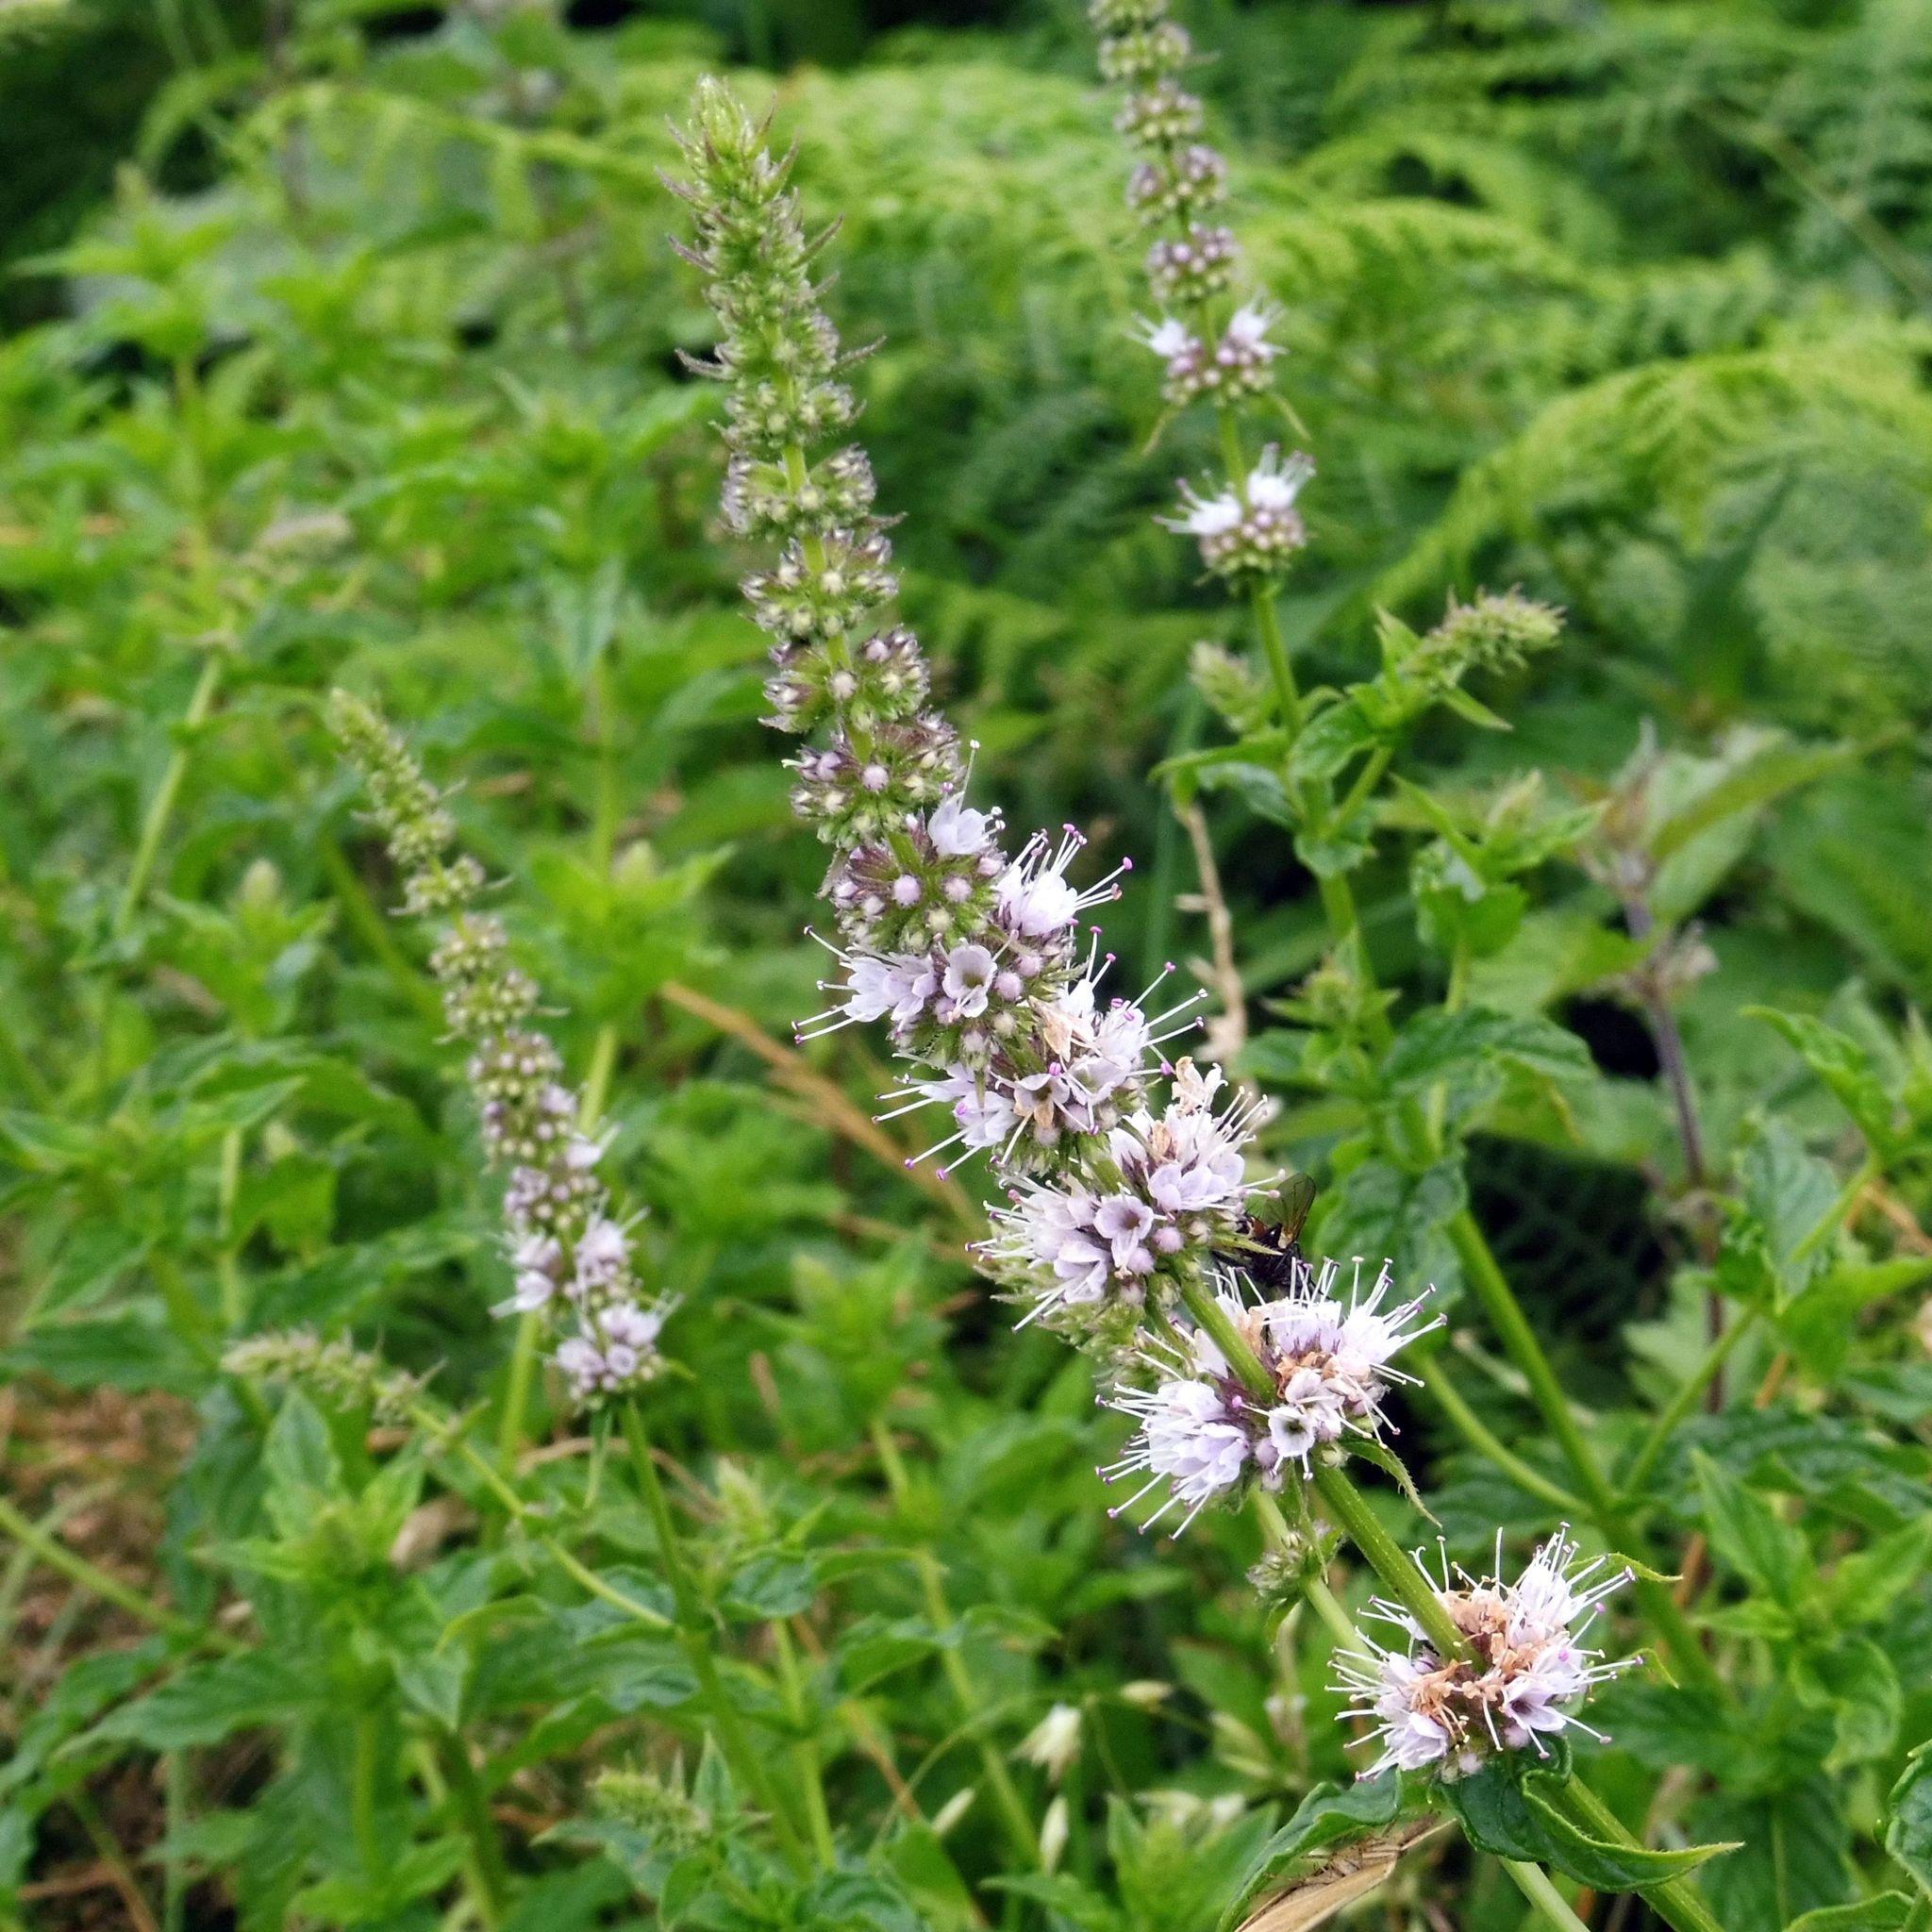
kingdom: Plantae
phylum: Tracheophyta
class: Magnoliopsida
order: Lamiales
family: Lamiaceae
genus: Mentha
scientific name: Mentha spicata
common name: Spearmint
